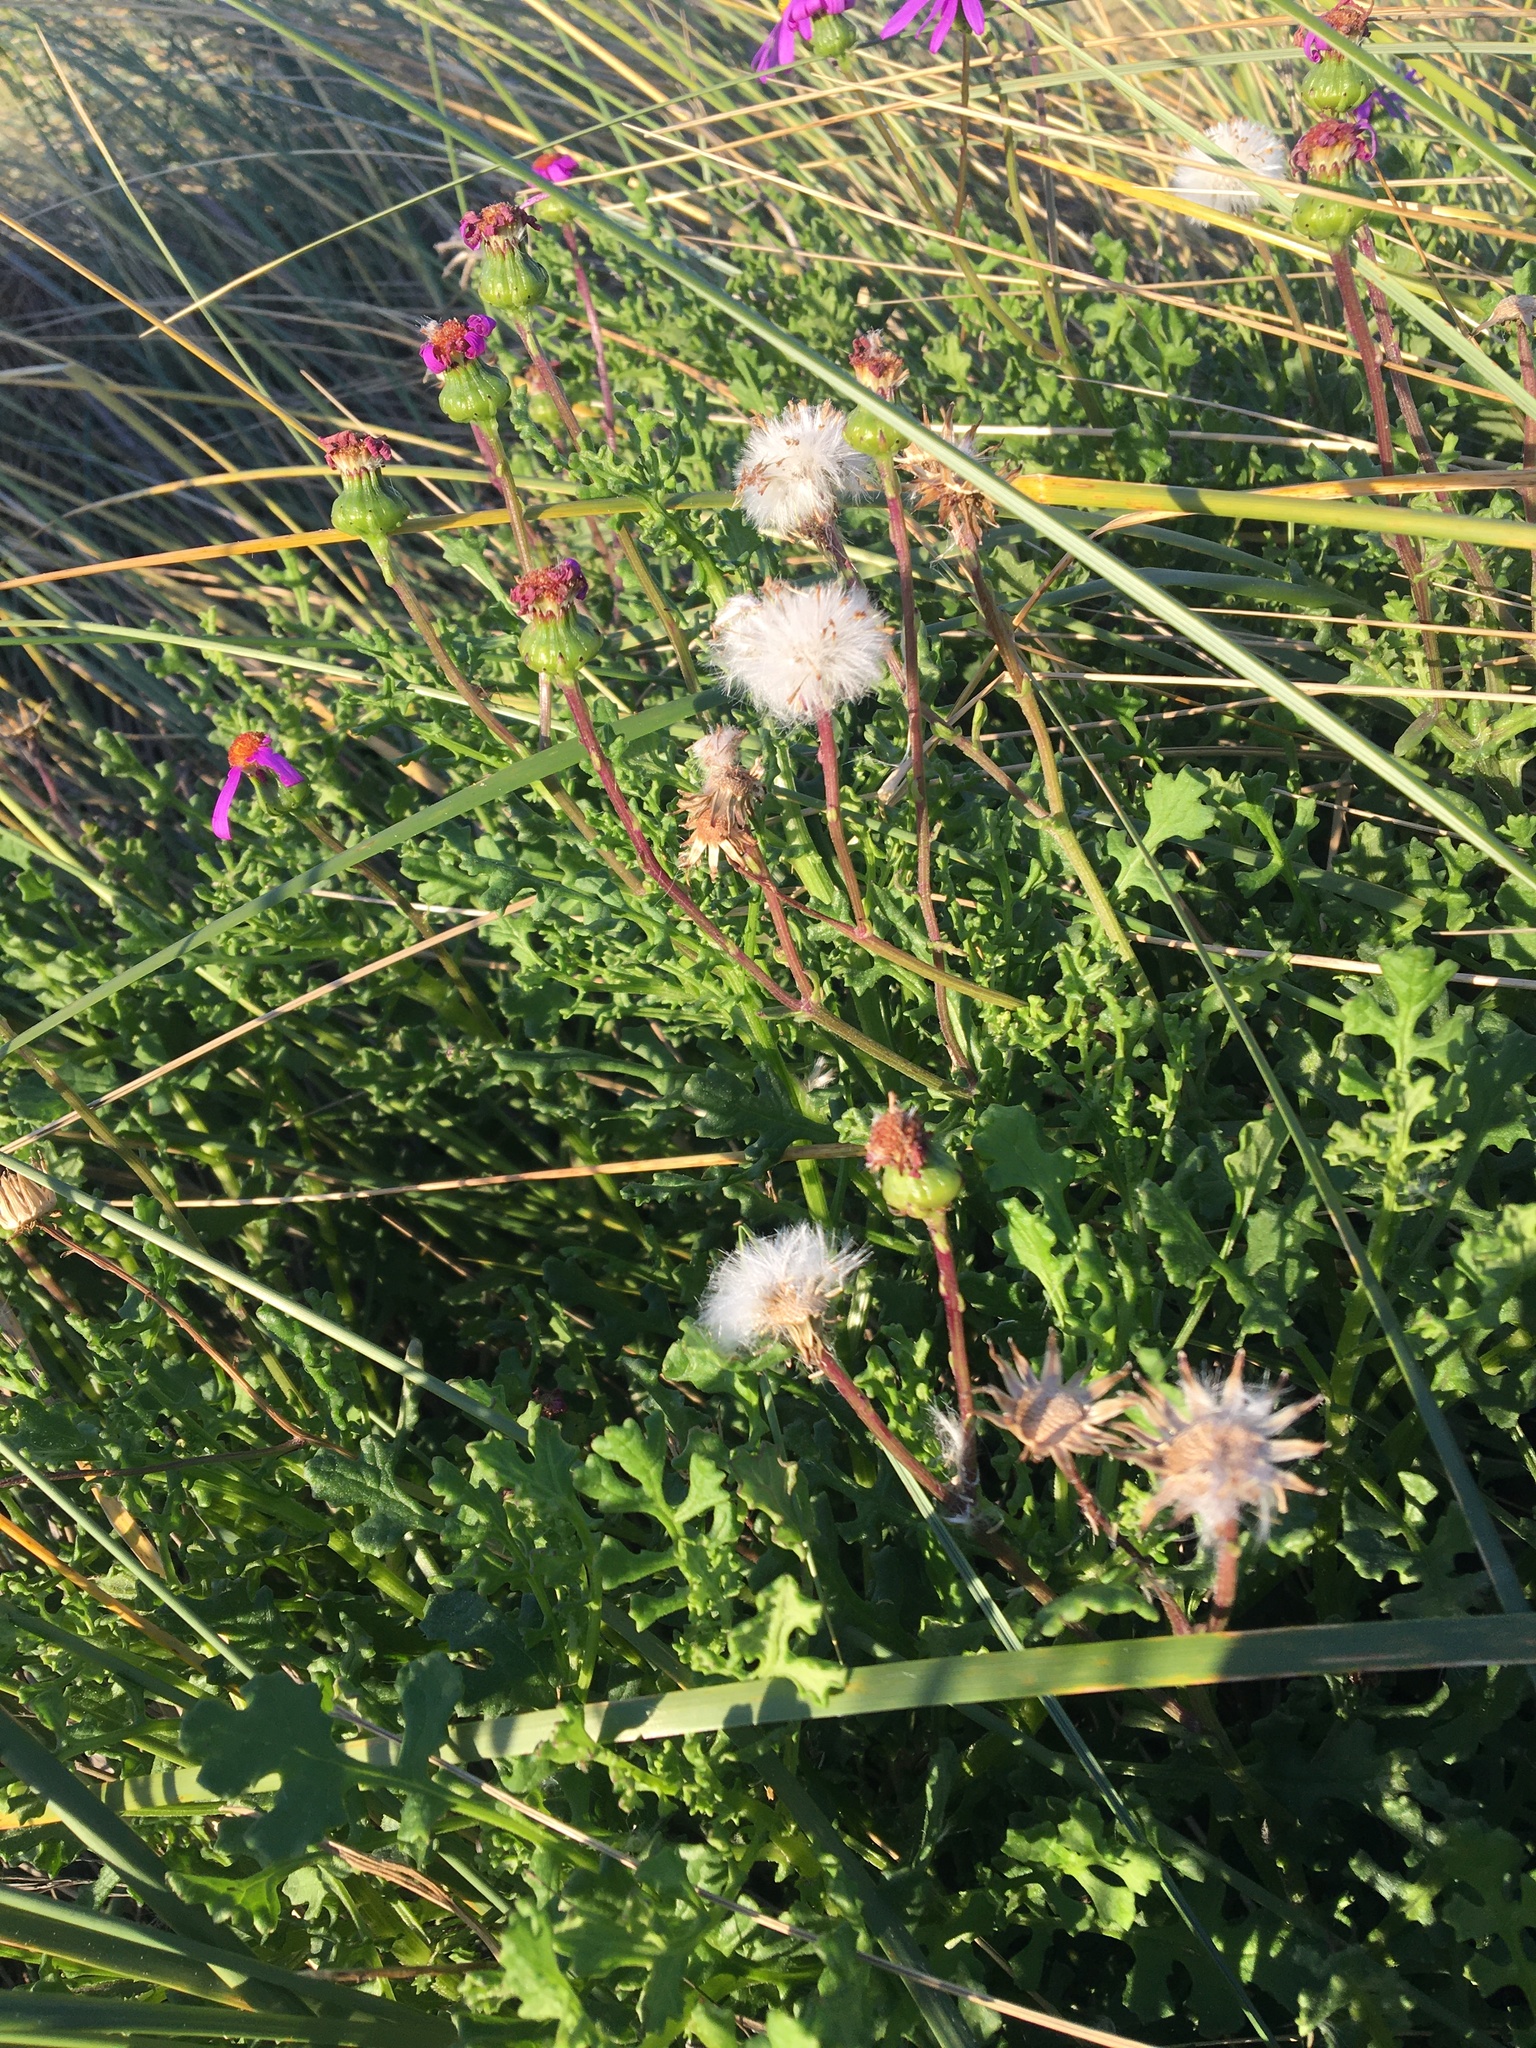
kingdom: Plantae
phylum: Tracheophyta
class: Magnoliopsida
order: Asterales
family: Asteraceae
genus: Senecio
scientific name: Senecio elegans
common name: Purple groundsel
